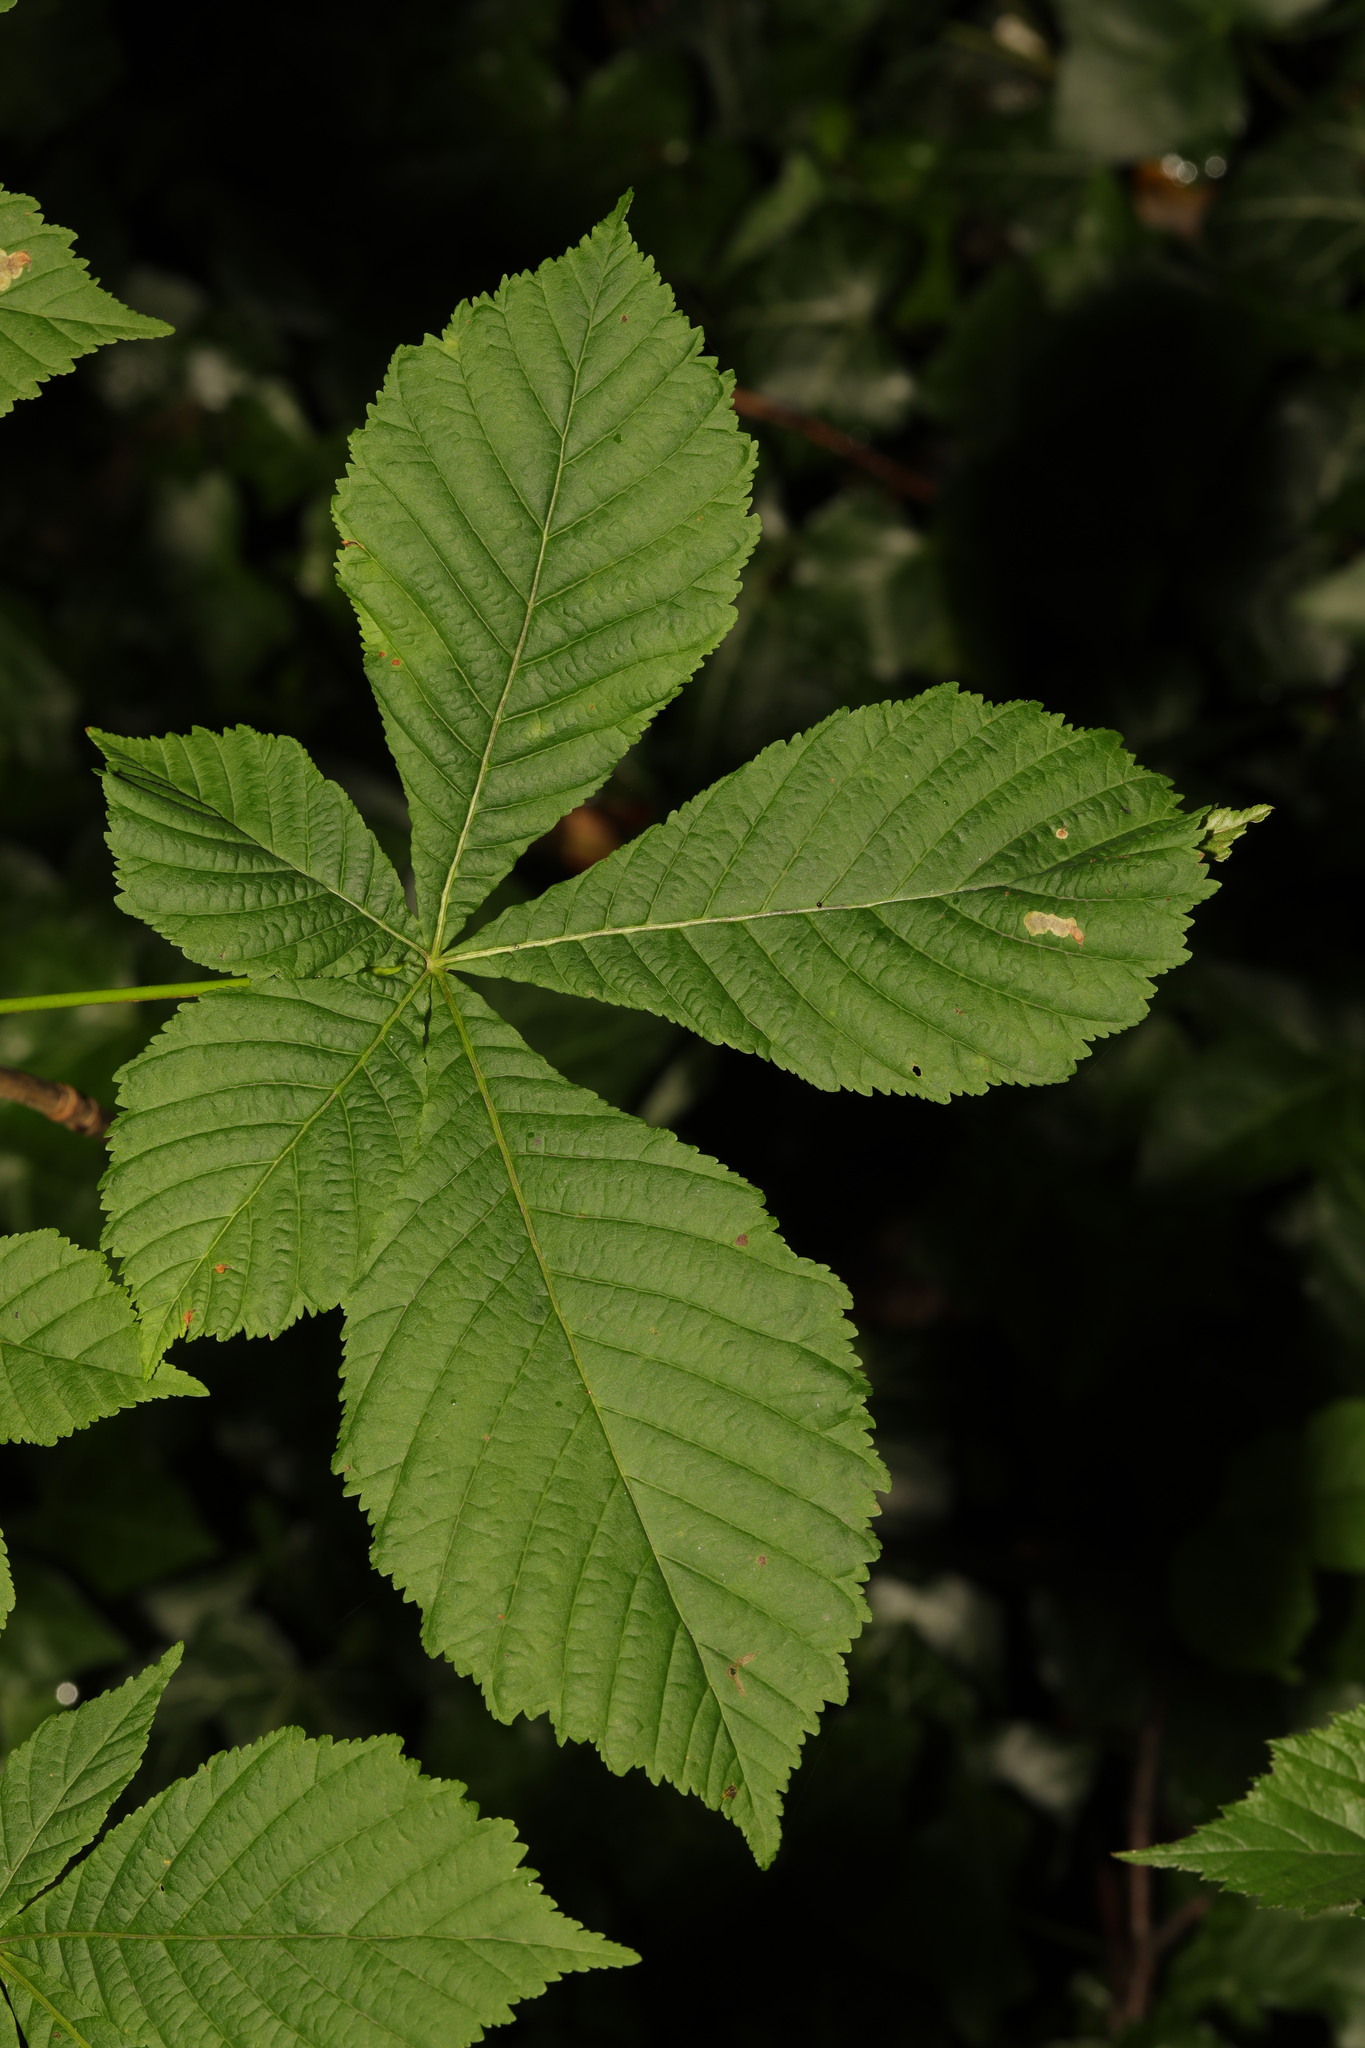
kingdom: Plantae
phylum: Tracheophyta
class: Magnoliopsida
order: Sapindales
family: Sapindaceae
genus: Aesculus
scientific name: Aesculus hippocastanum
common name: Horse-chestnut
